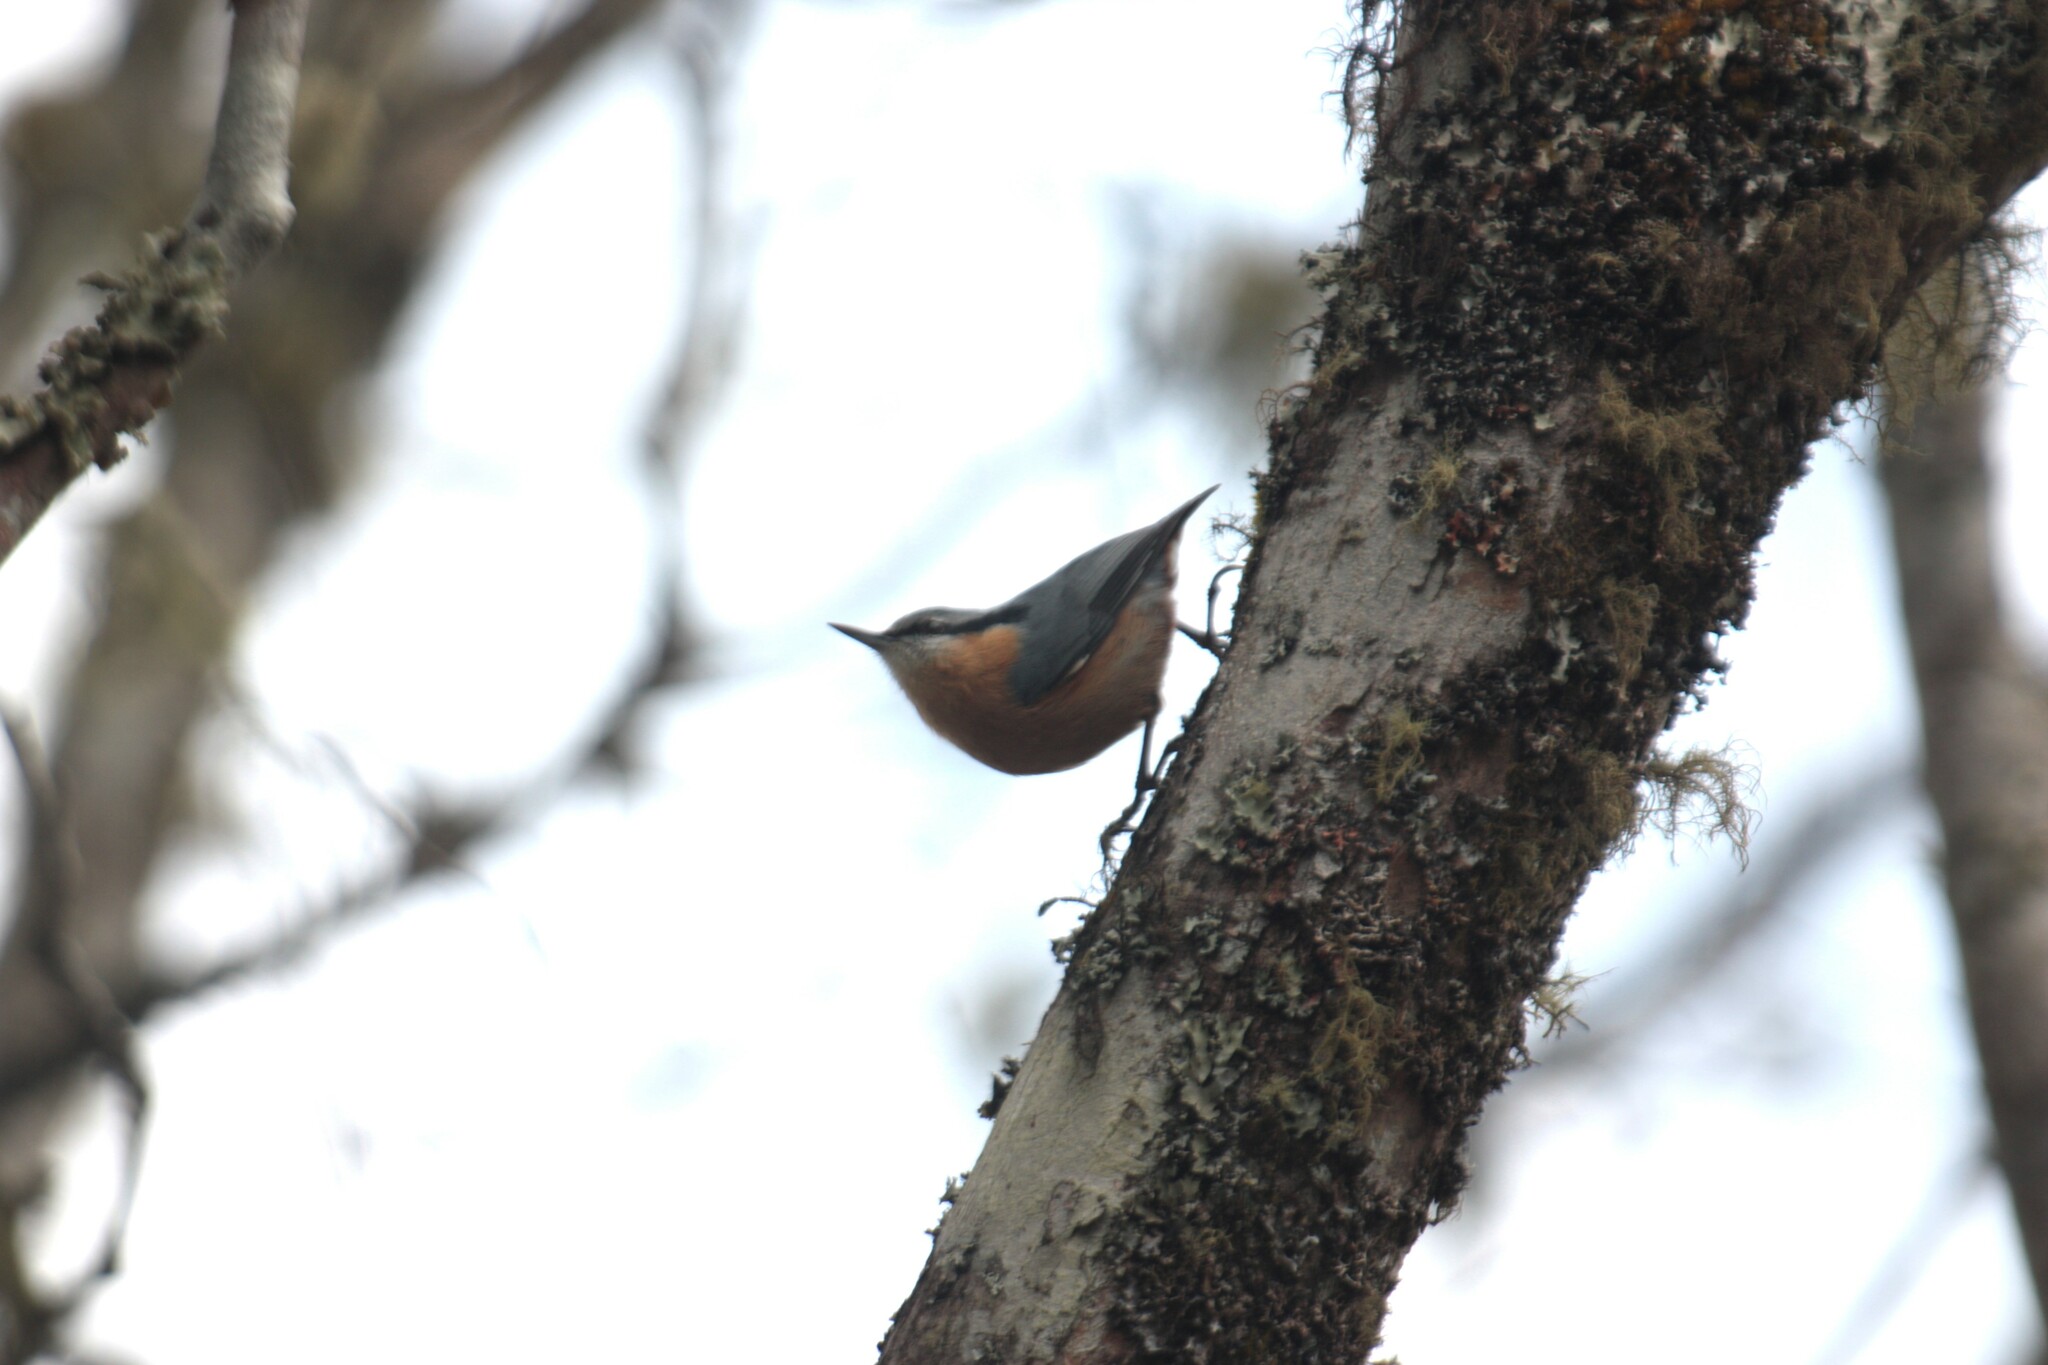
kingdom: Animalia
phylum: Chordata
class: Aves
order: Passeriformes
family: Sittidae
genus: Sitta
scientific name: Sitta europaea
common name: Eurasian nuthatch
